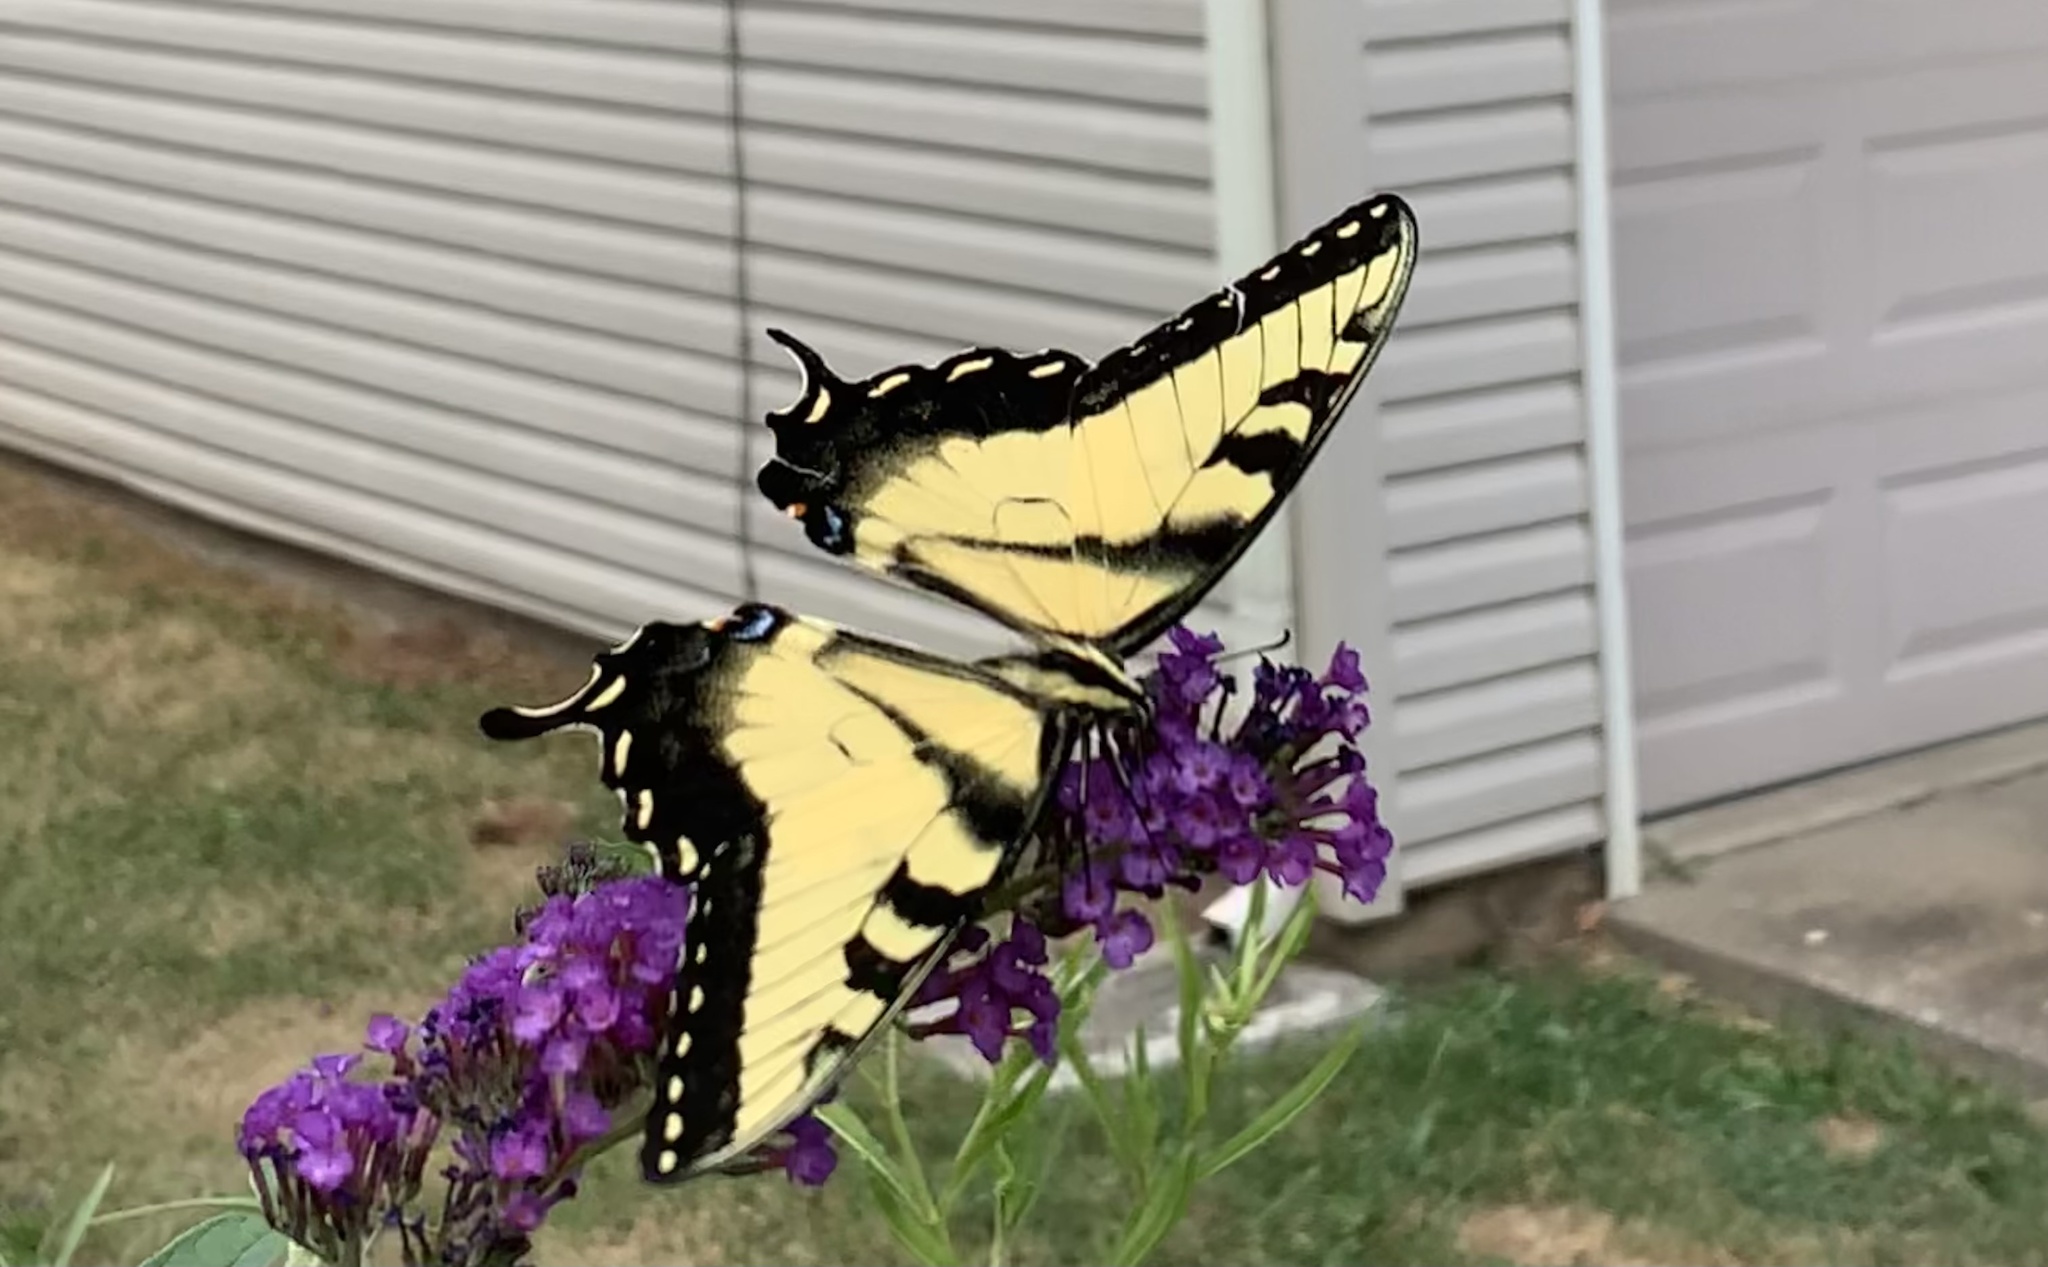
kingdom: Animalia
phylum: Arthropoda
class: Insecta
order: Lepidoptera
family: Papilionidae
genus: Papilio
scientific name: Papilio glaucus
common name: Tiger swallowtail
